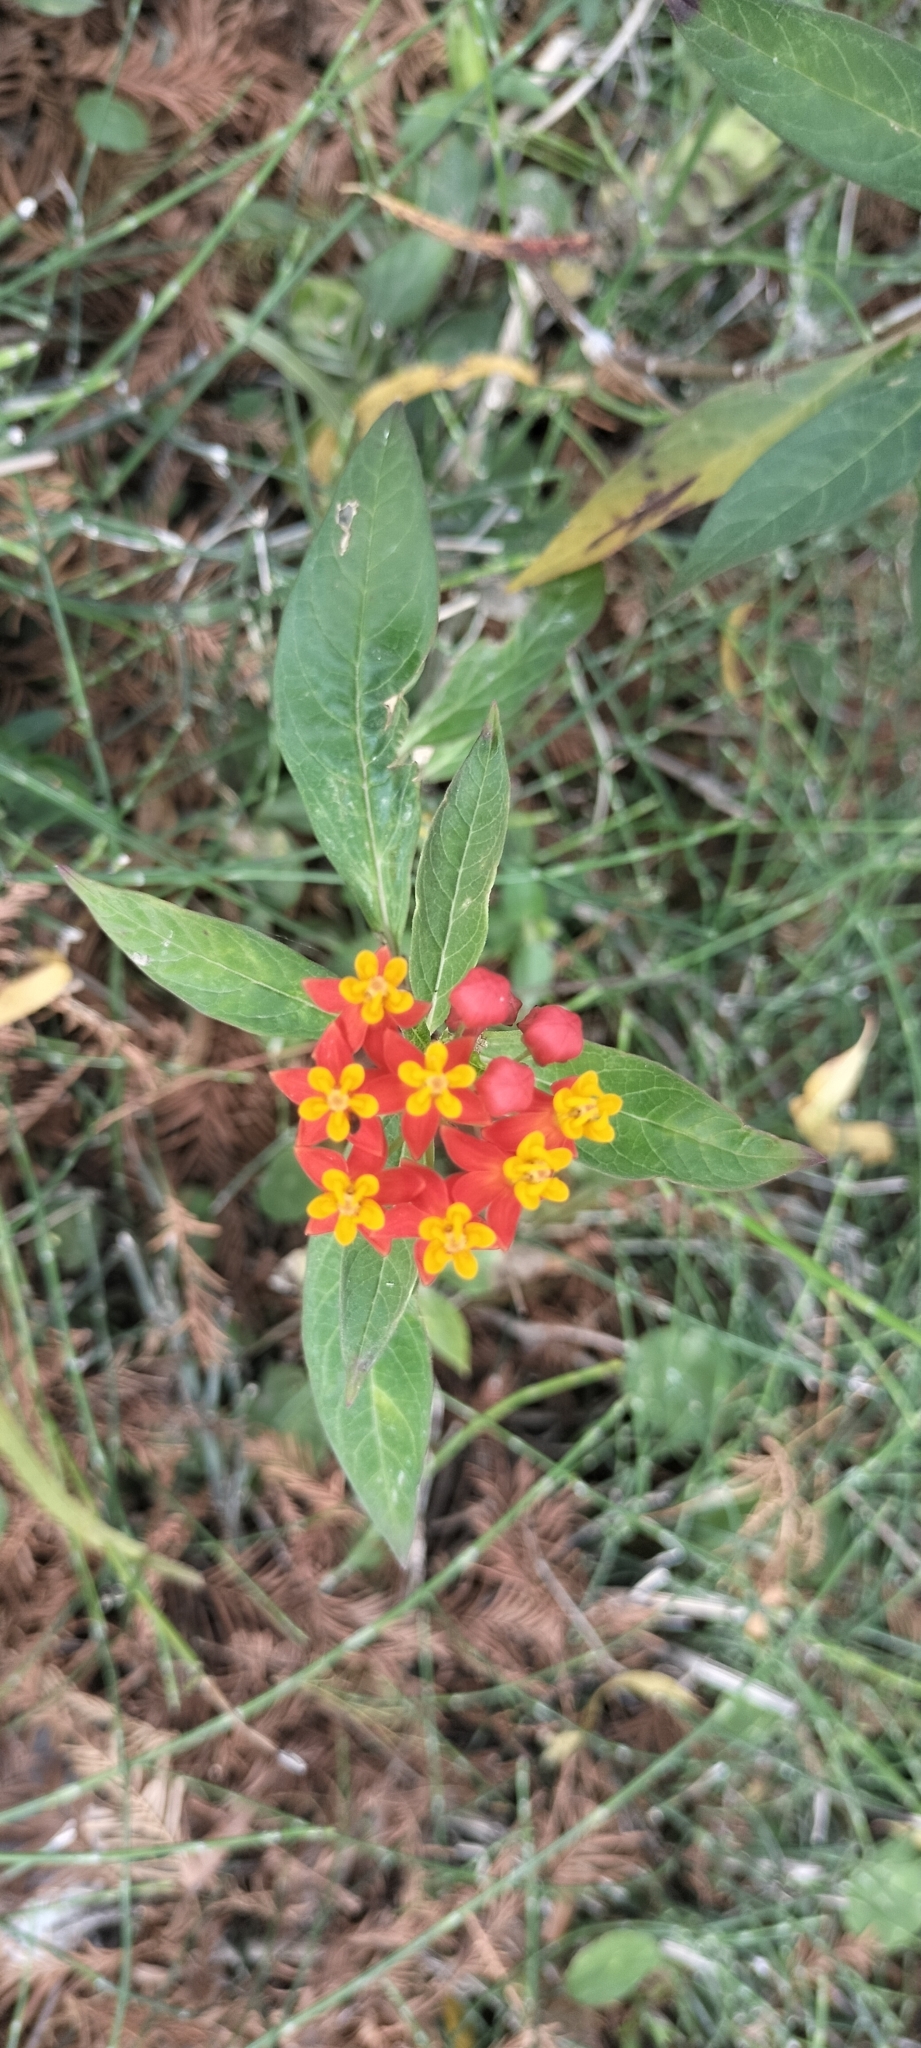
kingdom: Plantae
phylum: Tracheophyta
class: Magnoliopsida
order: Gentianales
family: Apocynaceae
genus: Asclepias
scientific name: Asclepias curassavica
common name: Bloodflower
